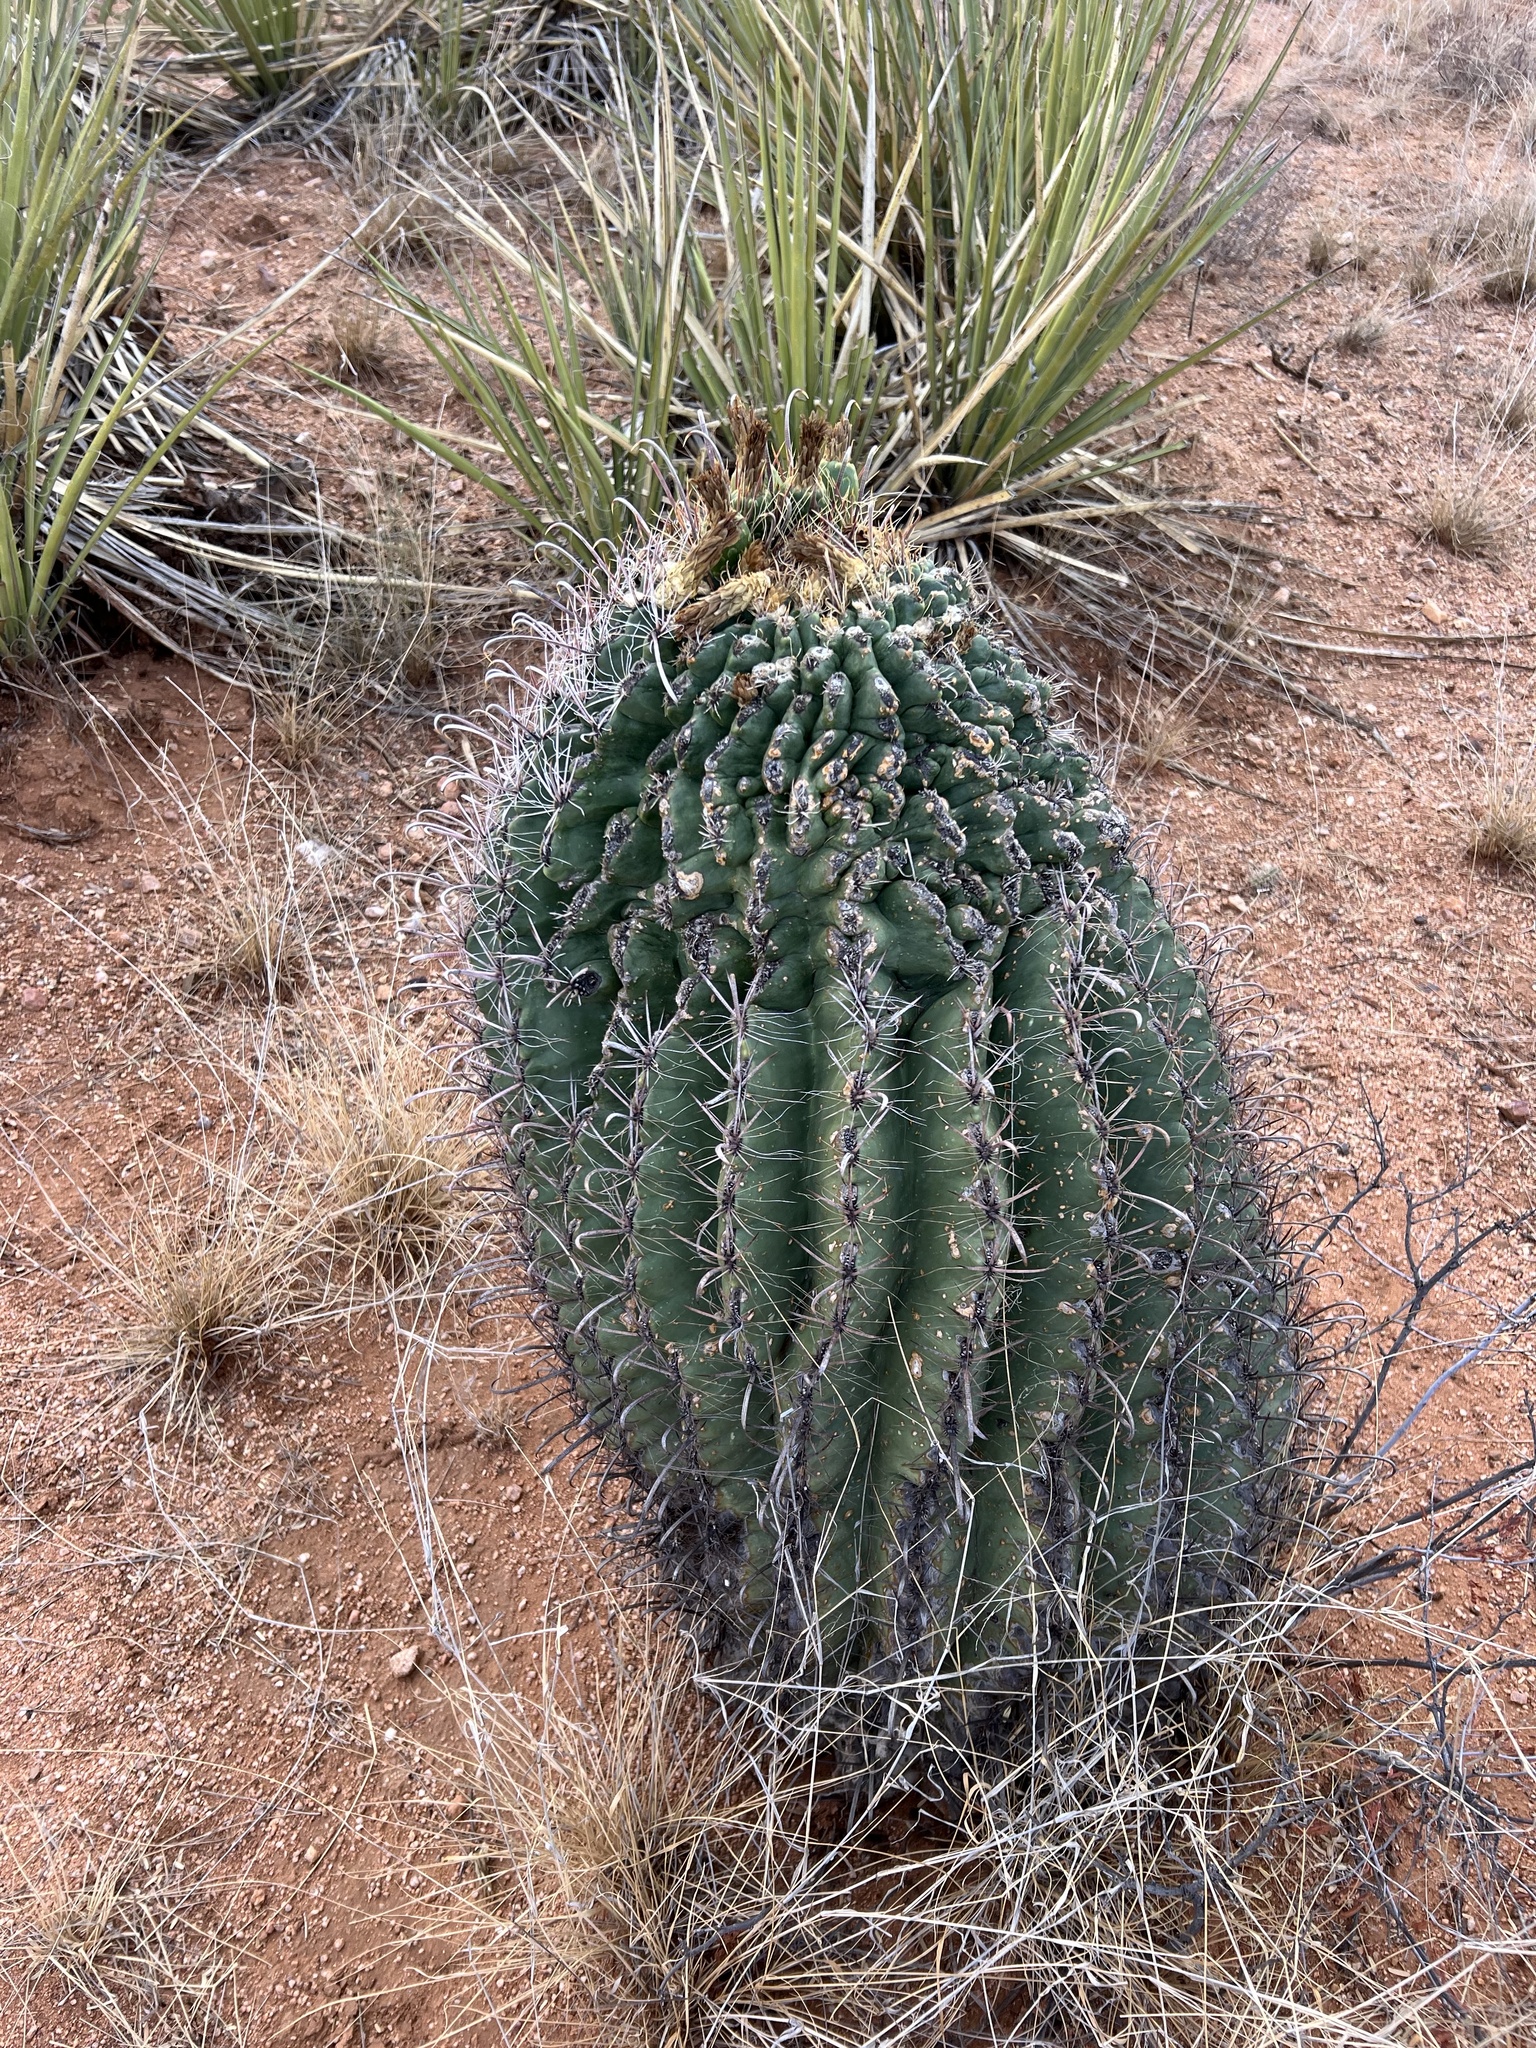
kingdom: Plantae
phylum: Tracheophyta
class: Magnoliopsida
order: Caryophyllales
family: Cactaceae
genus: Ferocactus
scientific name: Ferocactus wislizeni
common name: Candy barrel cactus
